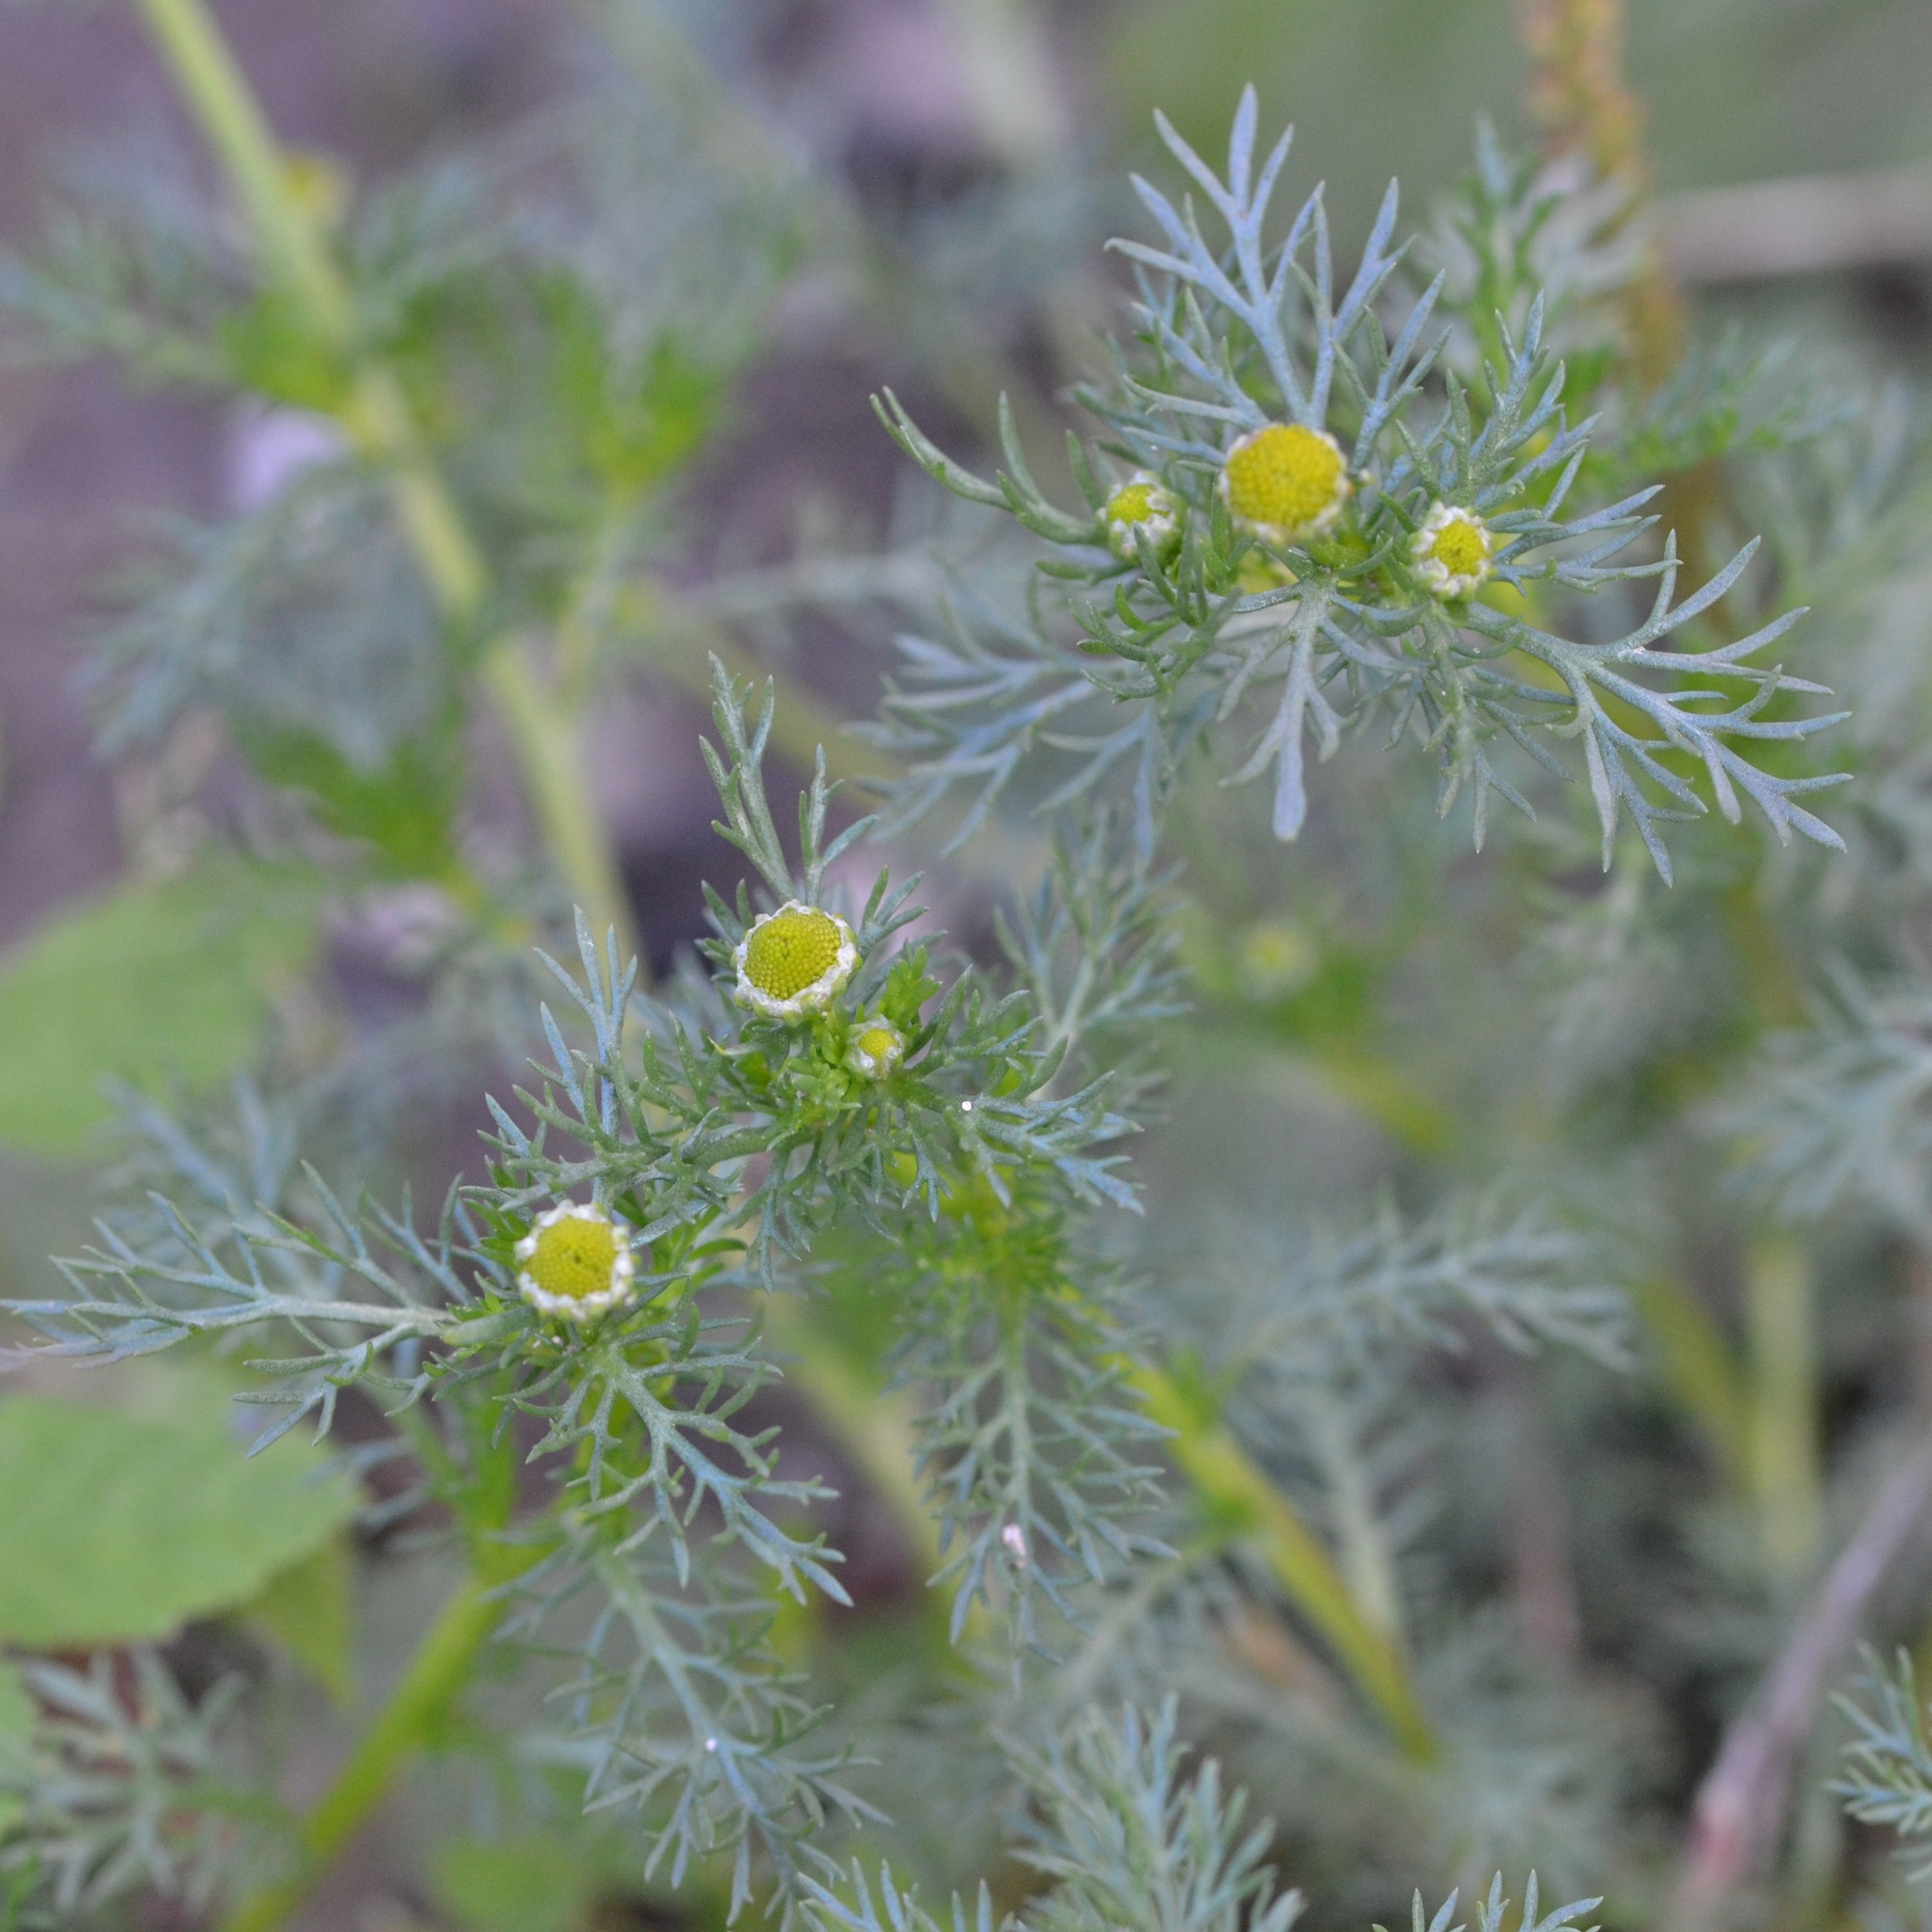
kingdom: Plantae
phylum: Tracheophyta
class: Magnoliopsida
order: Asterales
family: Asteraceae
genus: Matricaria
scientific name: Matricaria discoidea
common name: Disc mayweed
